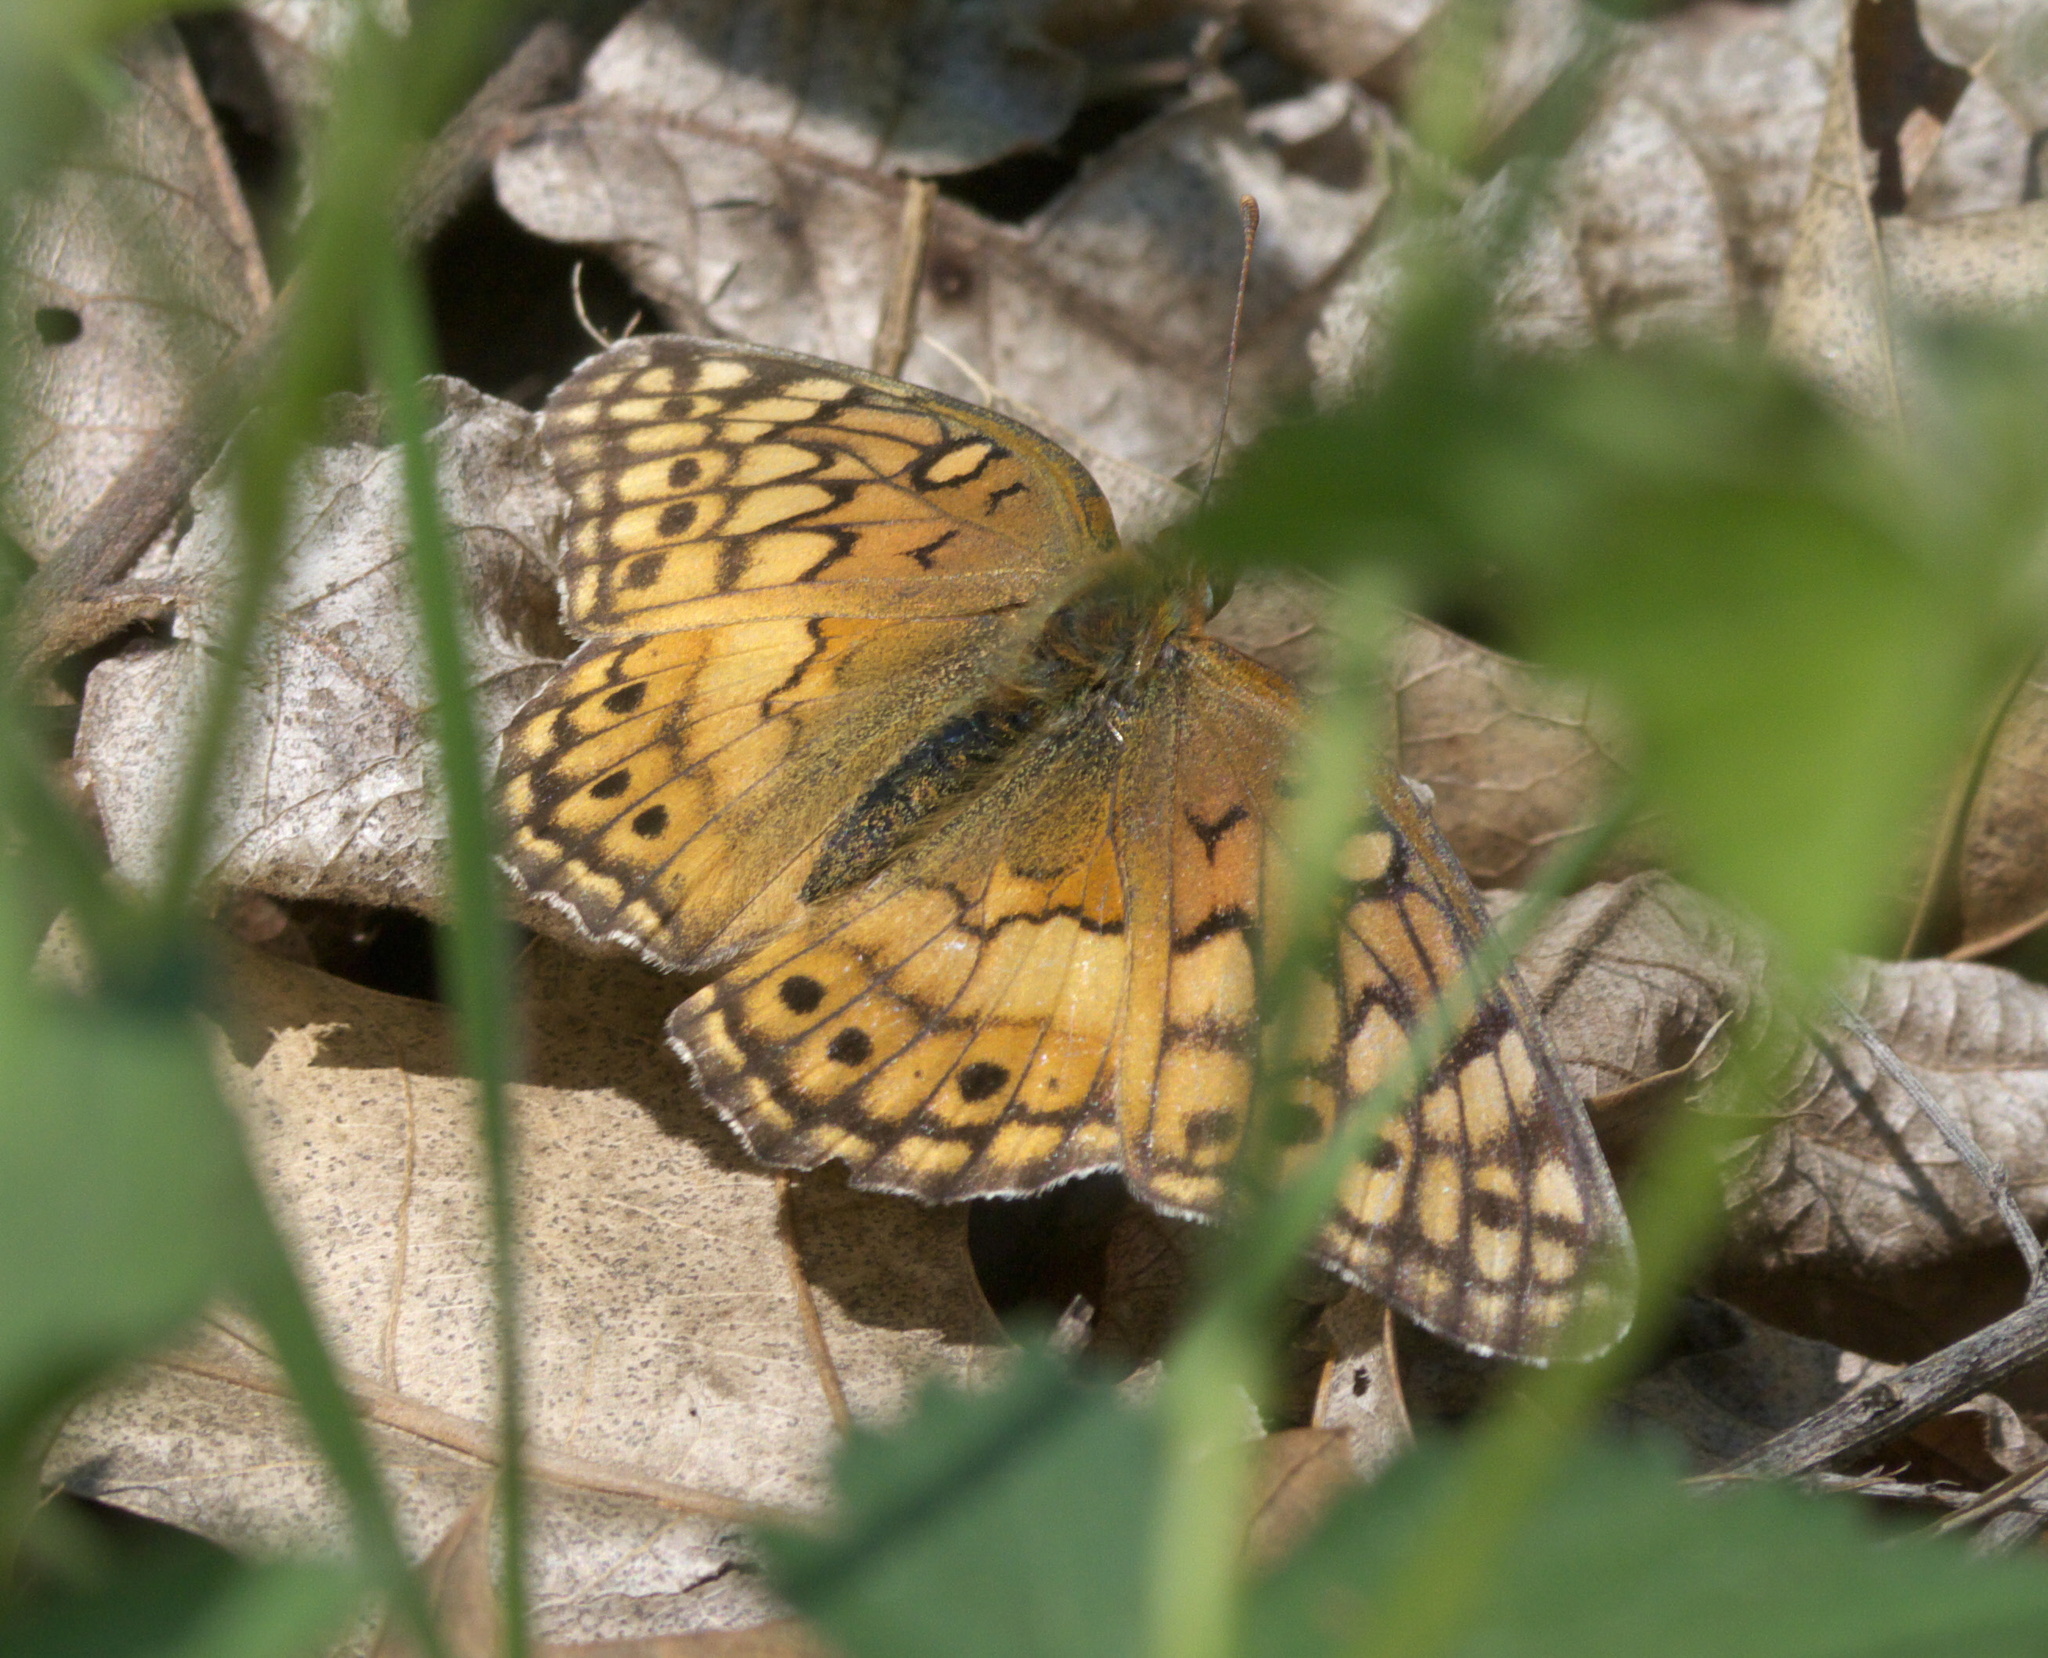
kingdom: Animalia
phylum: Arthropoda
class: Insecta
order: Lepidoptera
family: Nymphalidae
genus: Euptoieta
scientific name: Euptoieta claudia
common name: Variegated fritillary
